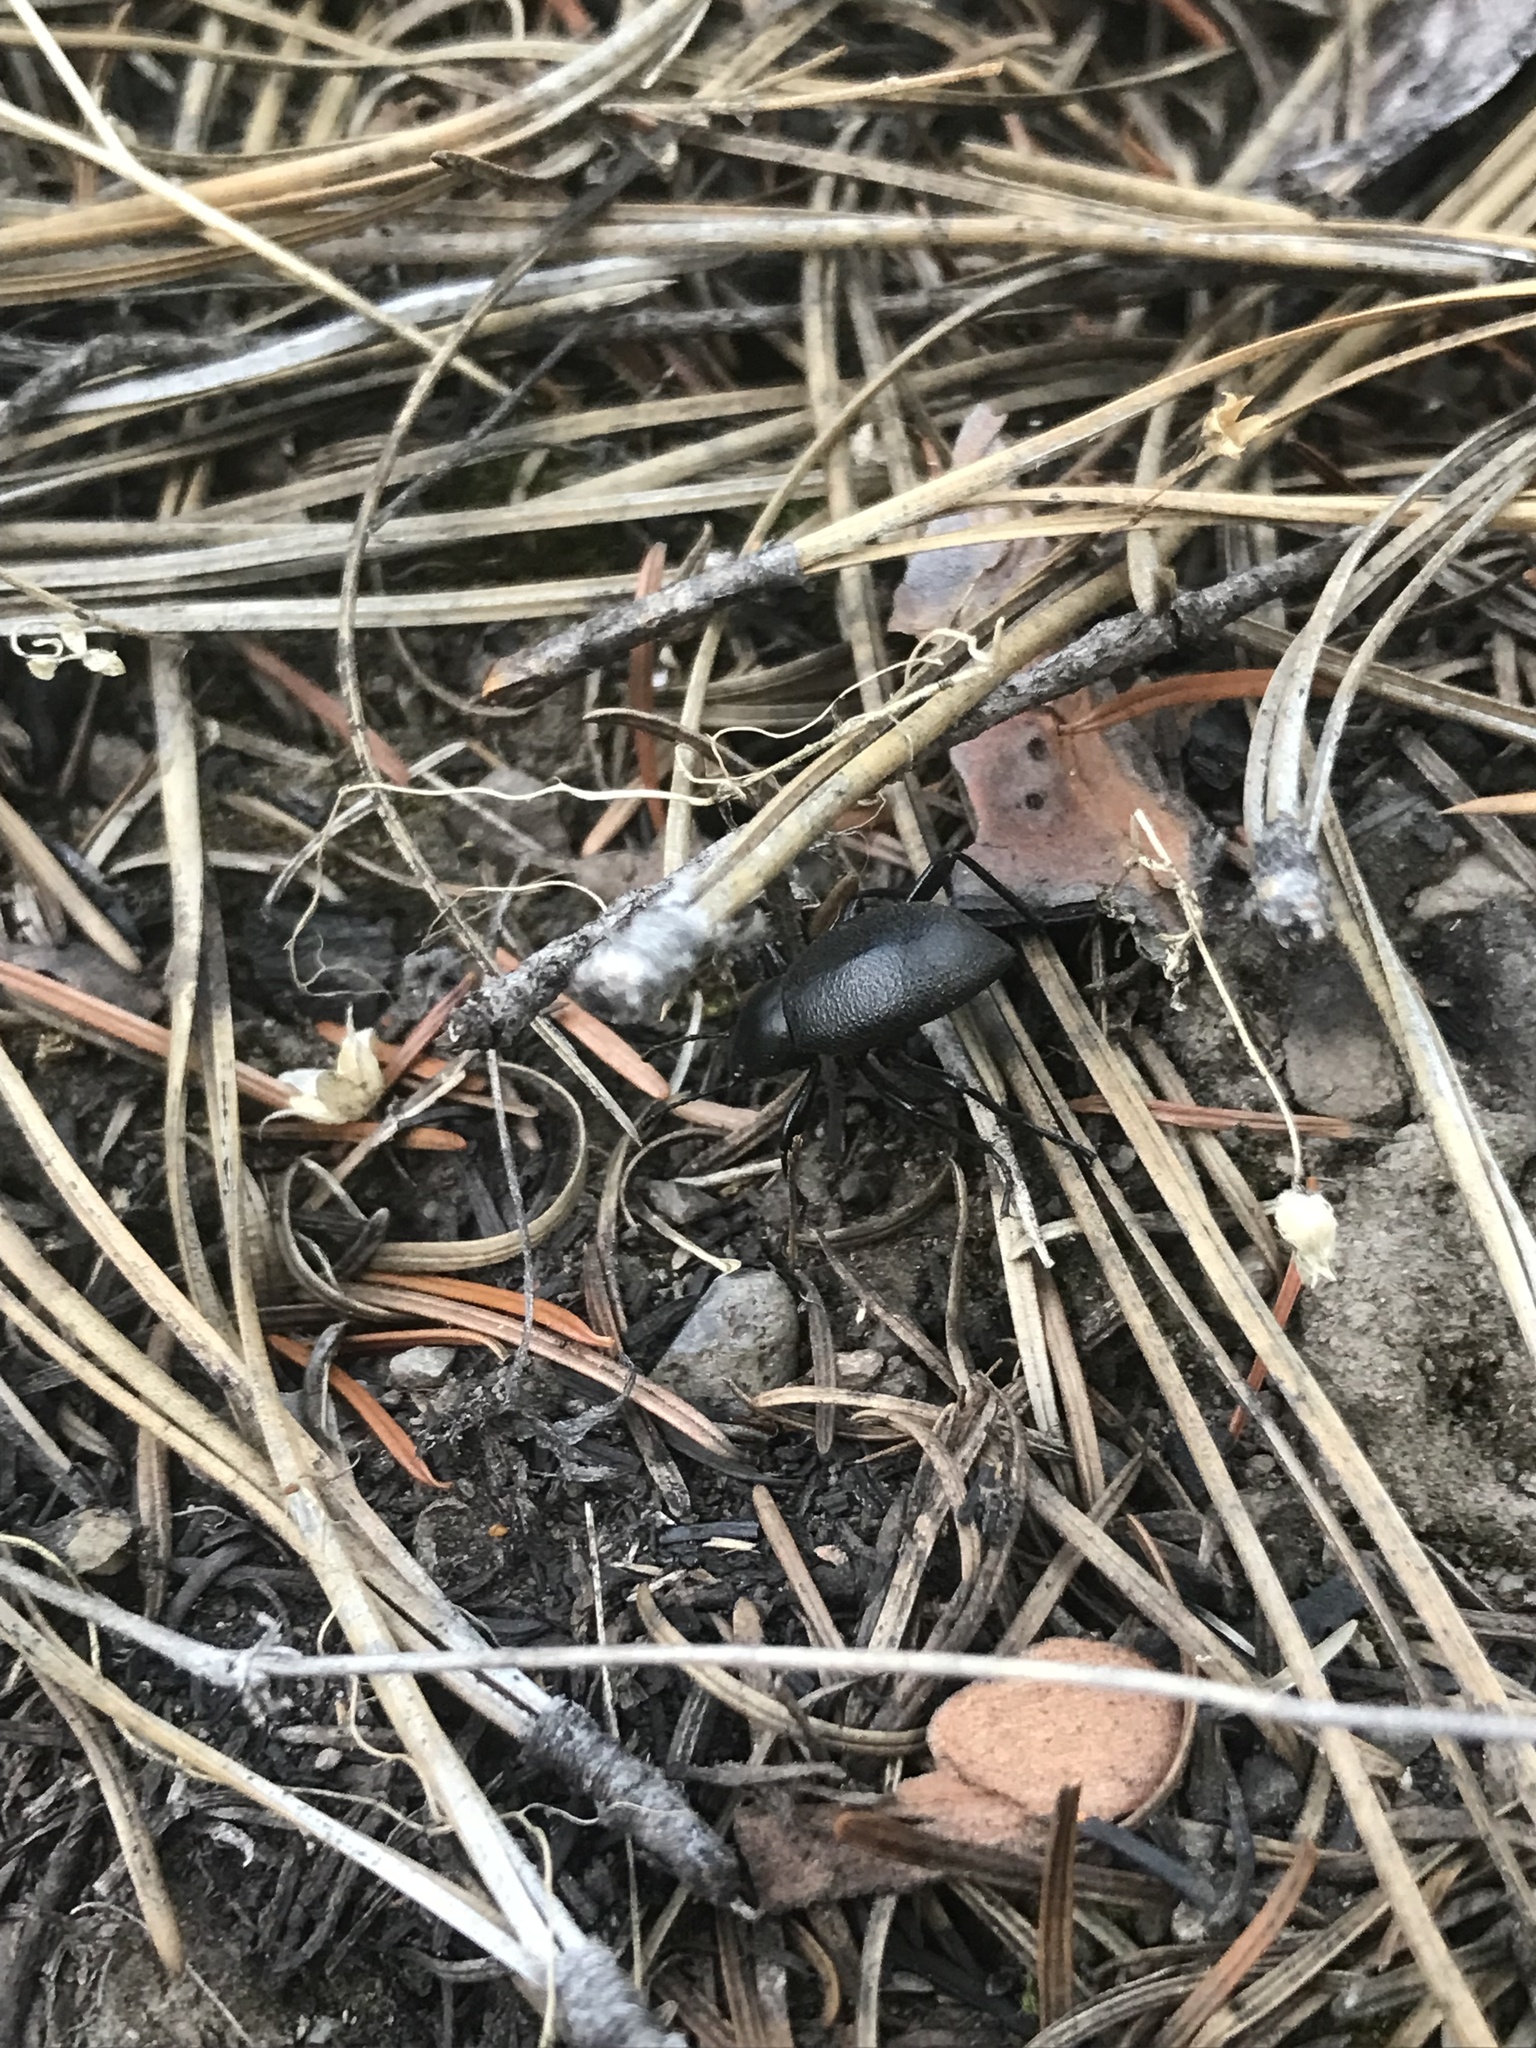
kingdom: Animalia
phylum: Arthropoda
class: Insecta
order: Coleoptera
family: Tenebrionidae
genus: Eleodes
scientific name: Eleodes granulata
